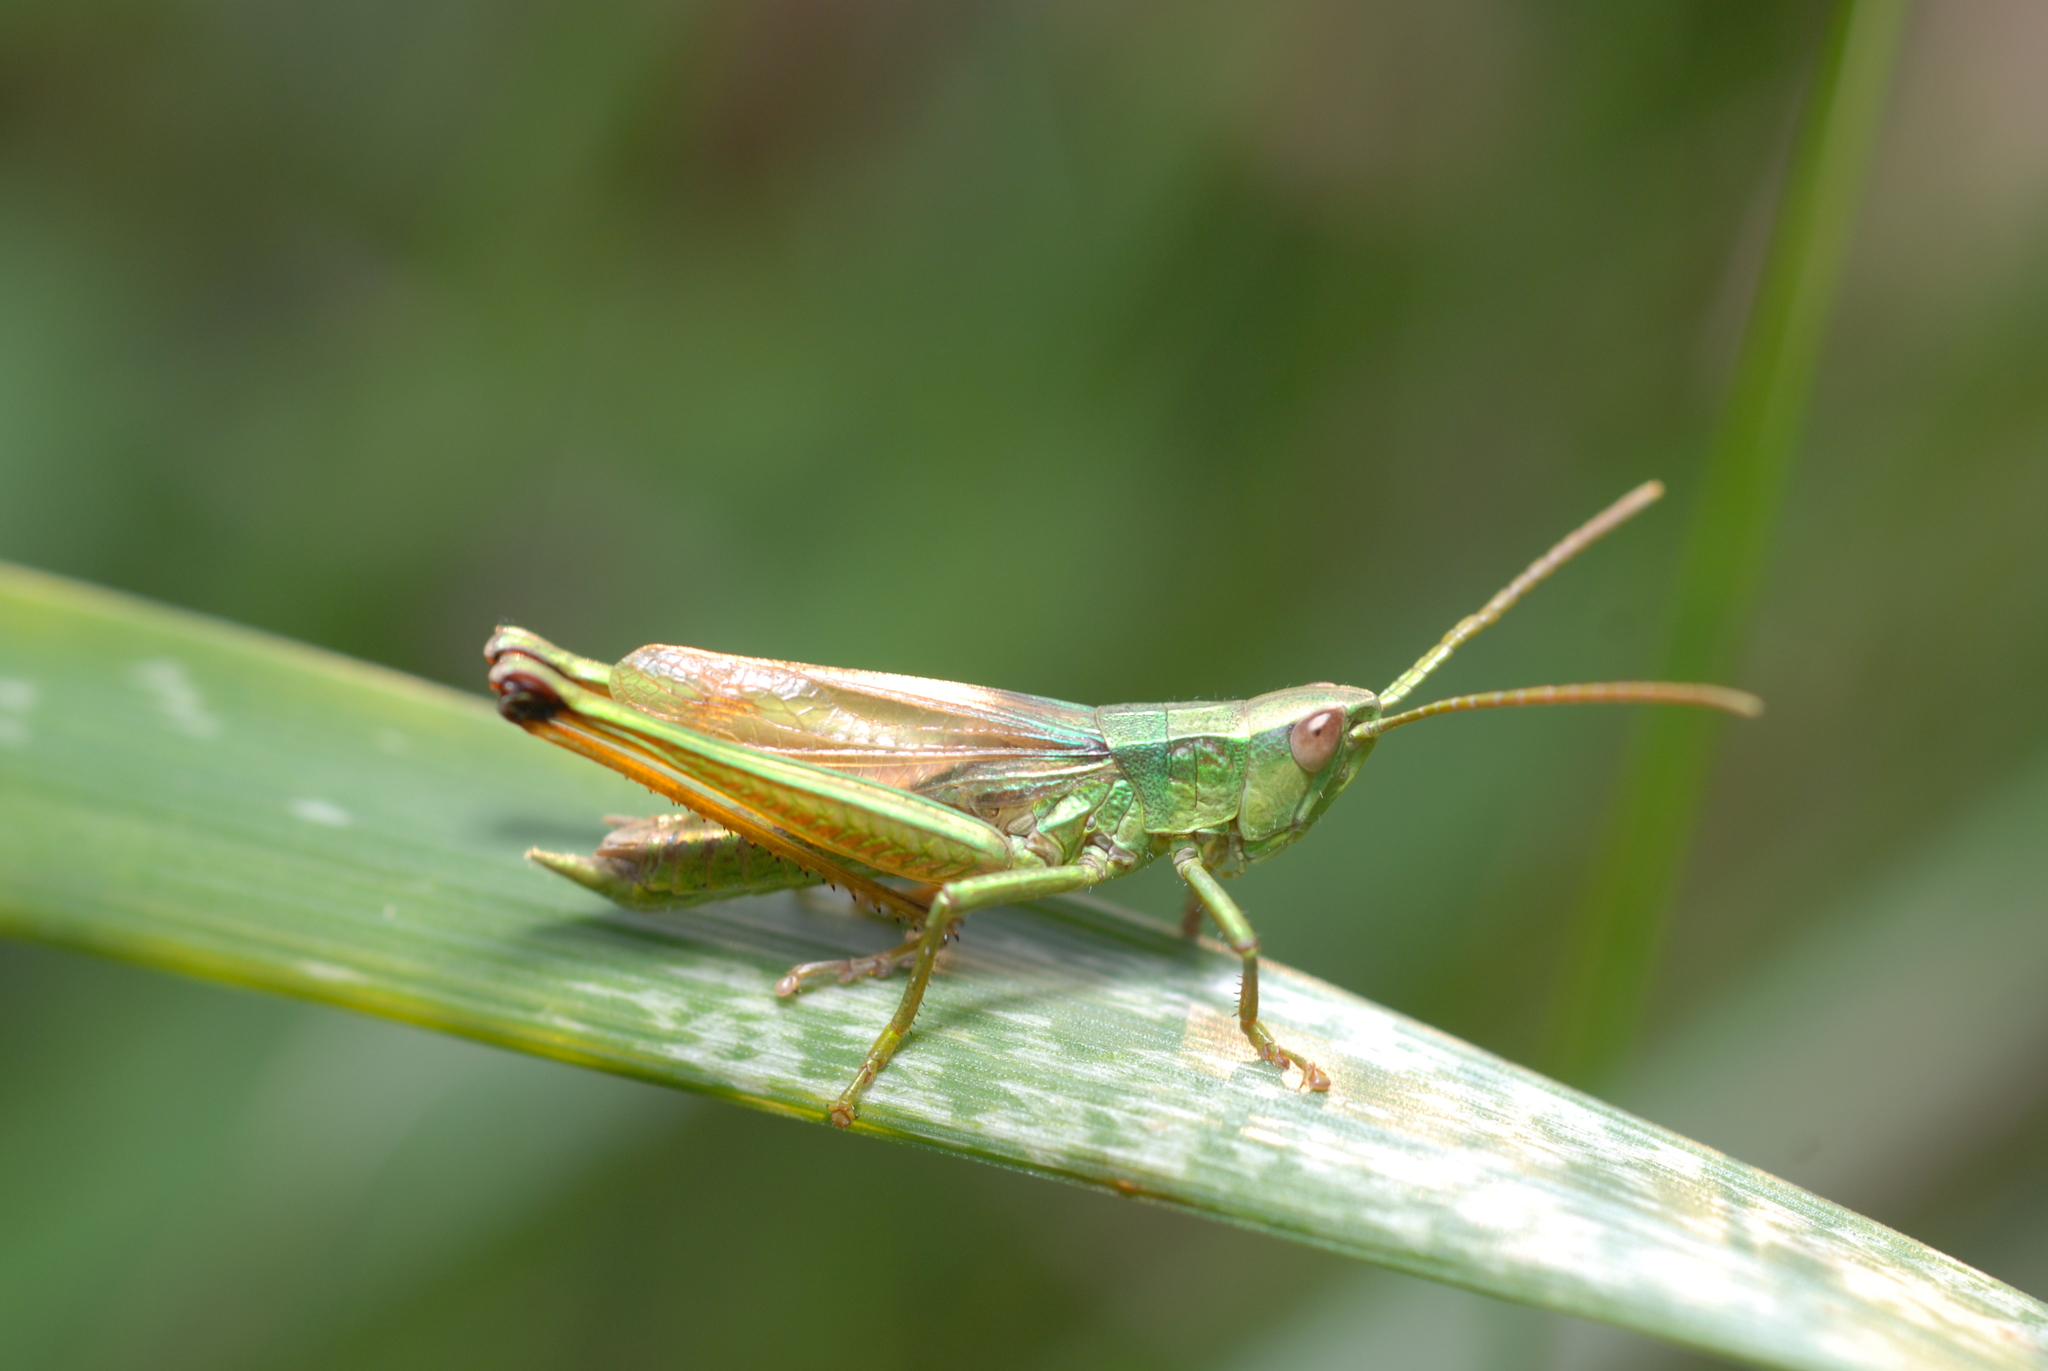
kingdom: Animalia
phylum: Arthropoda
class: Insecta
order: Orthoptera
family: Acrididae
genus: Chrysochraon
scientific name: Chrysochraon dispar
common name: Large gold grasshopper
